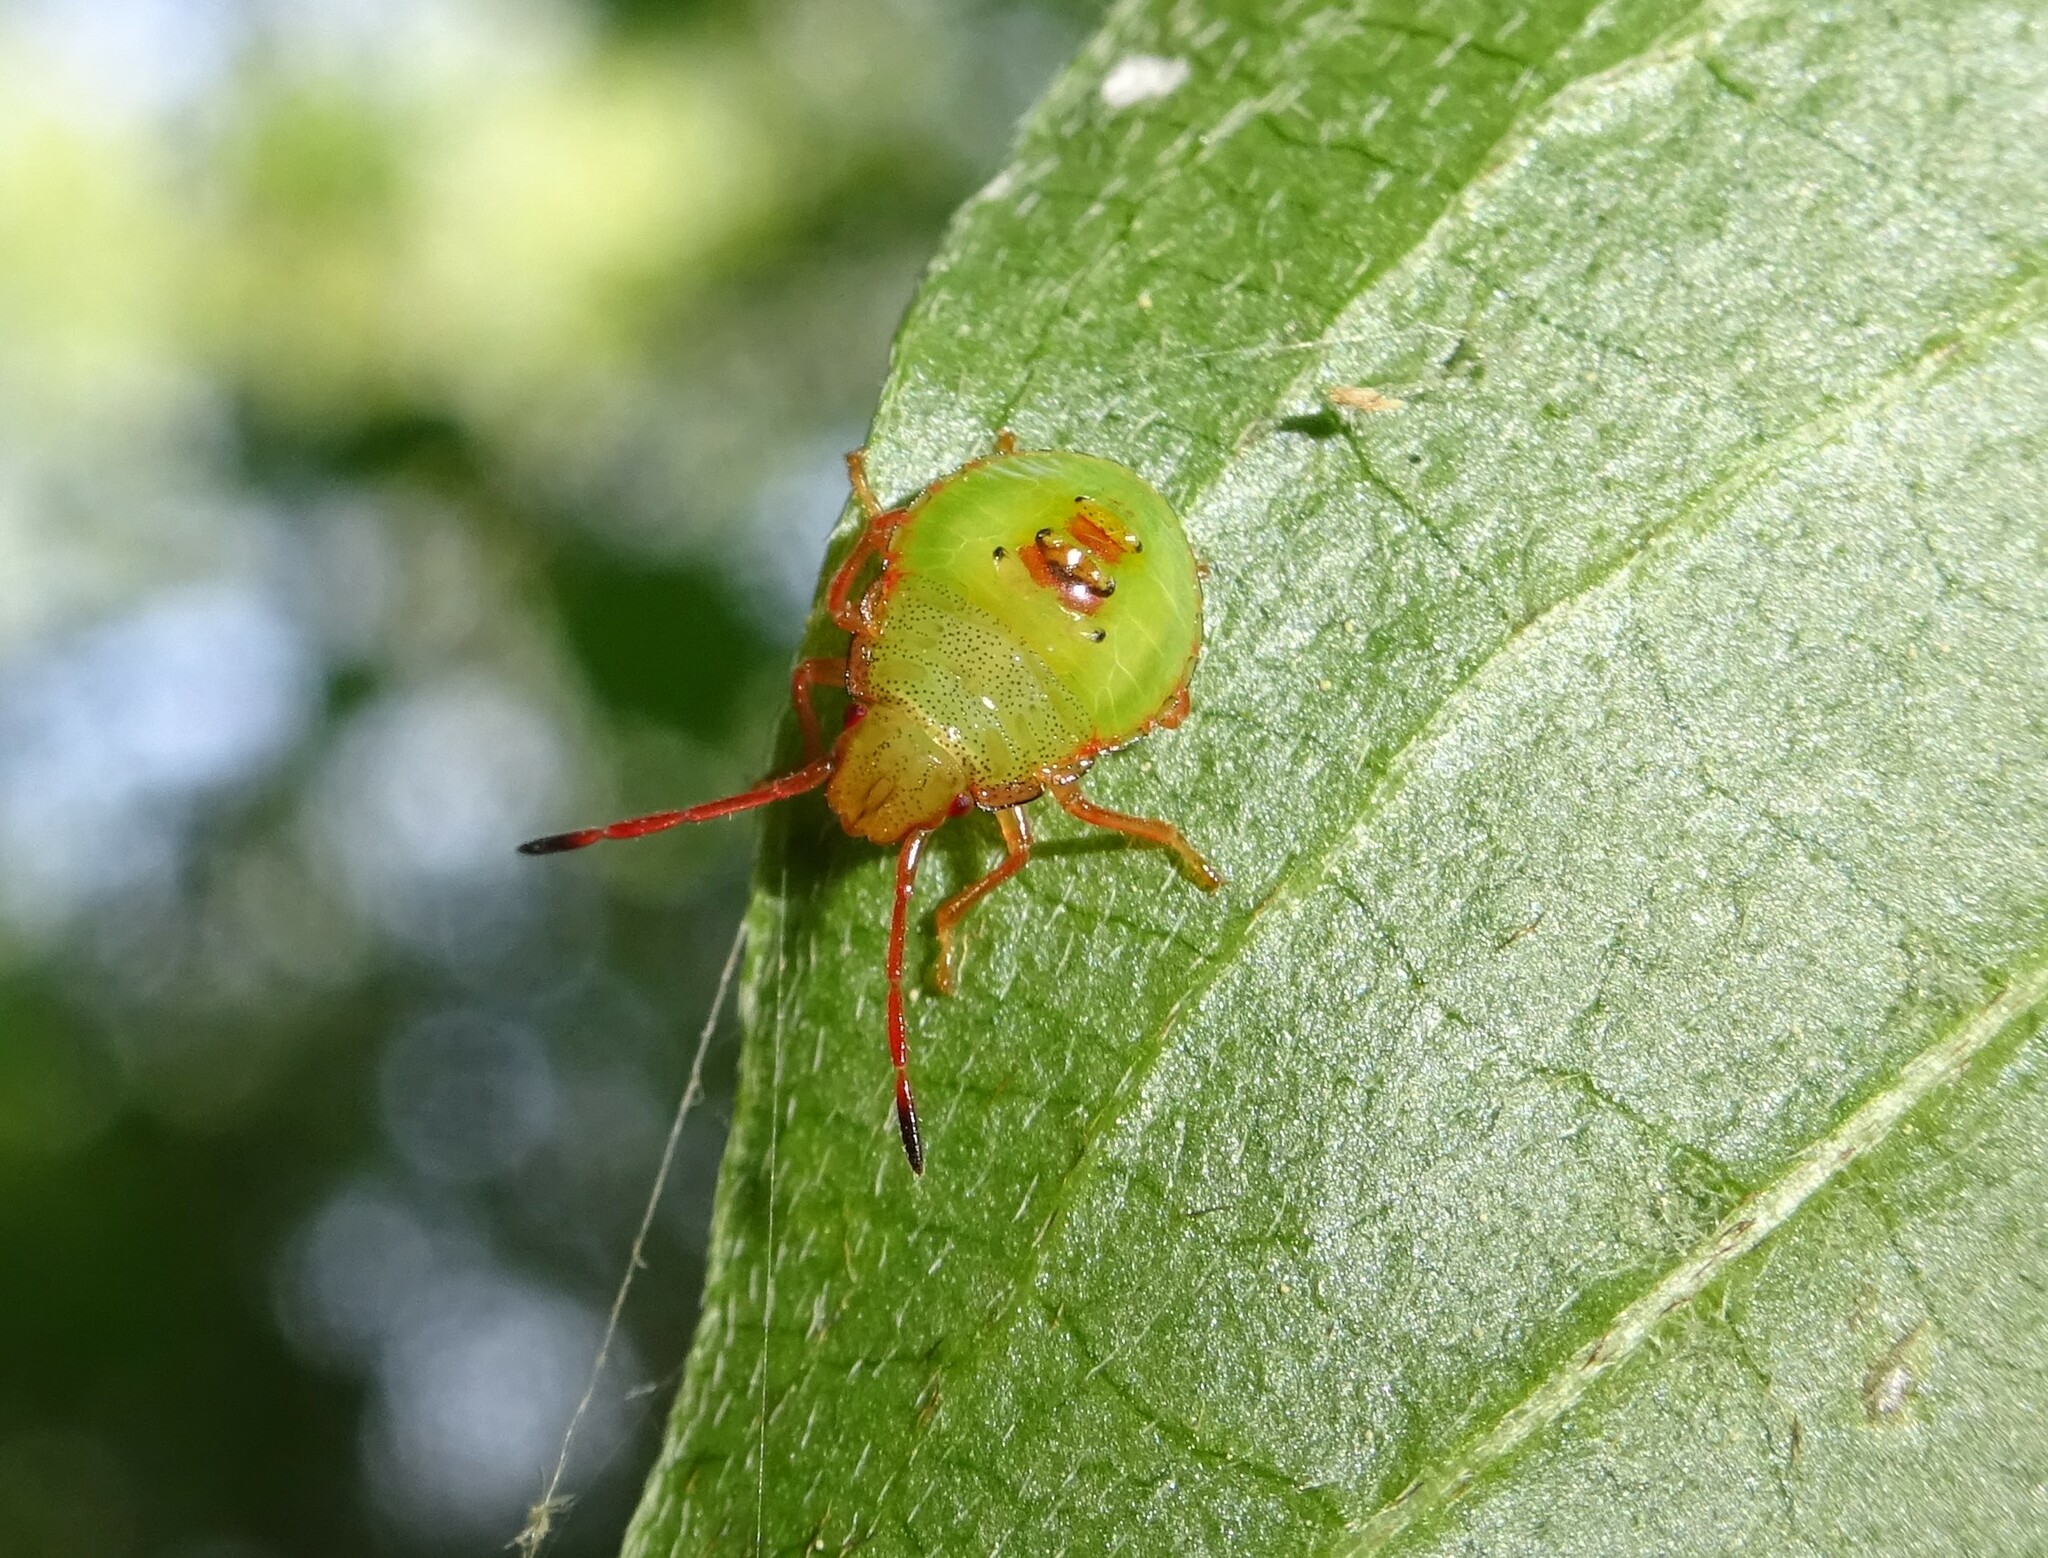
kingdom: Animalia
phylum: Arthropoda
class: Insecta
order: Hemiptera
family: Acanthosomatidae
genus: Acanthosoma
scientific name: Acanthosoma haemorrhoidale
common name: Hawthorn shieldbug
